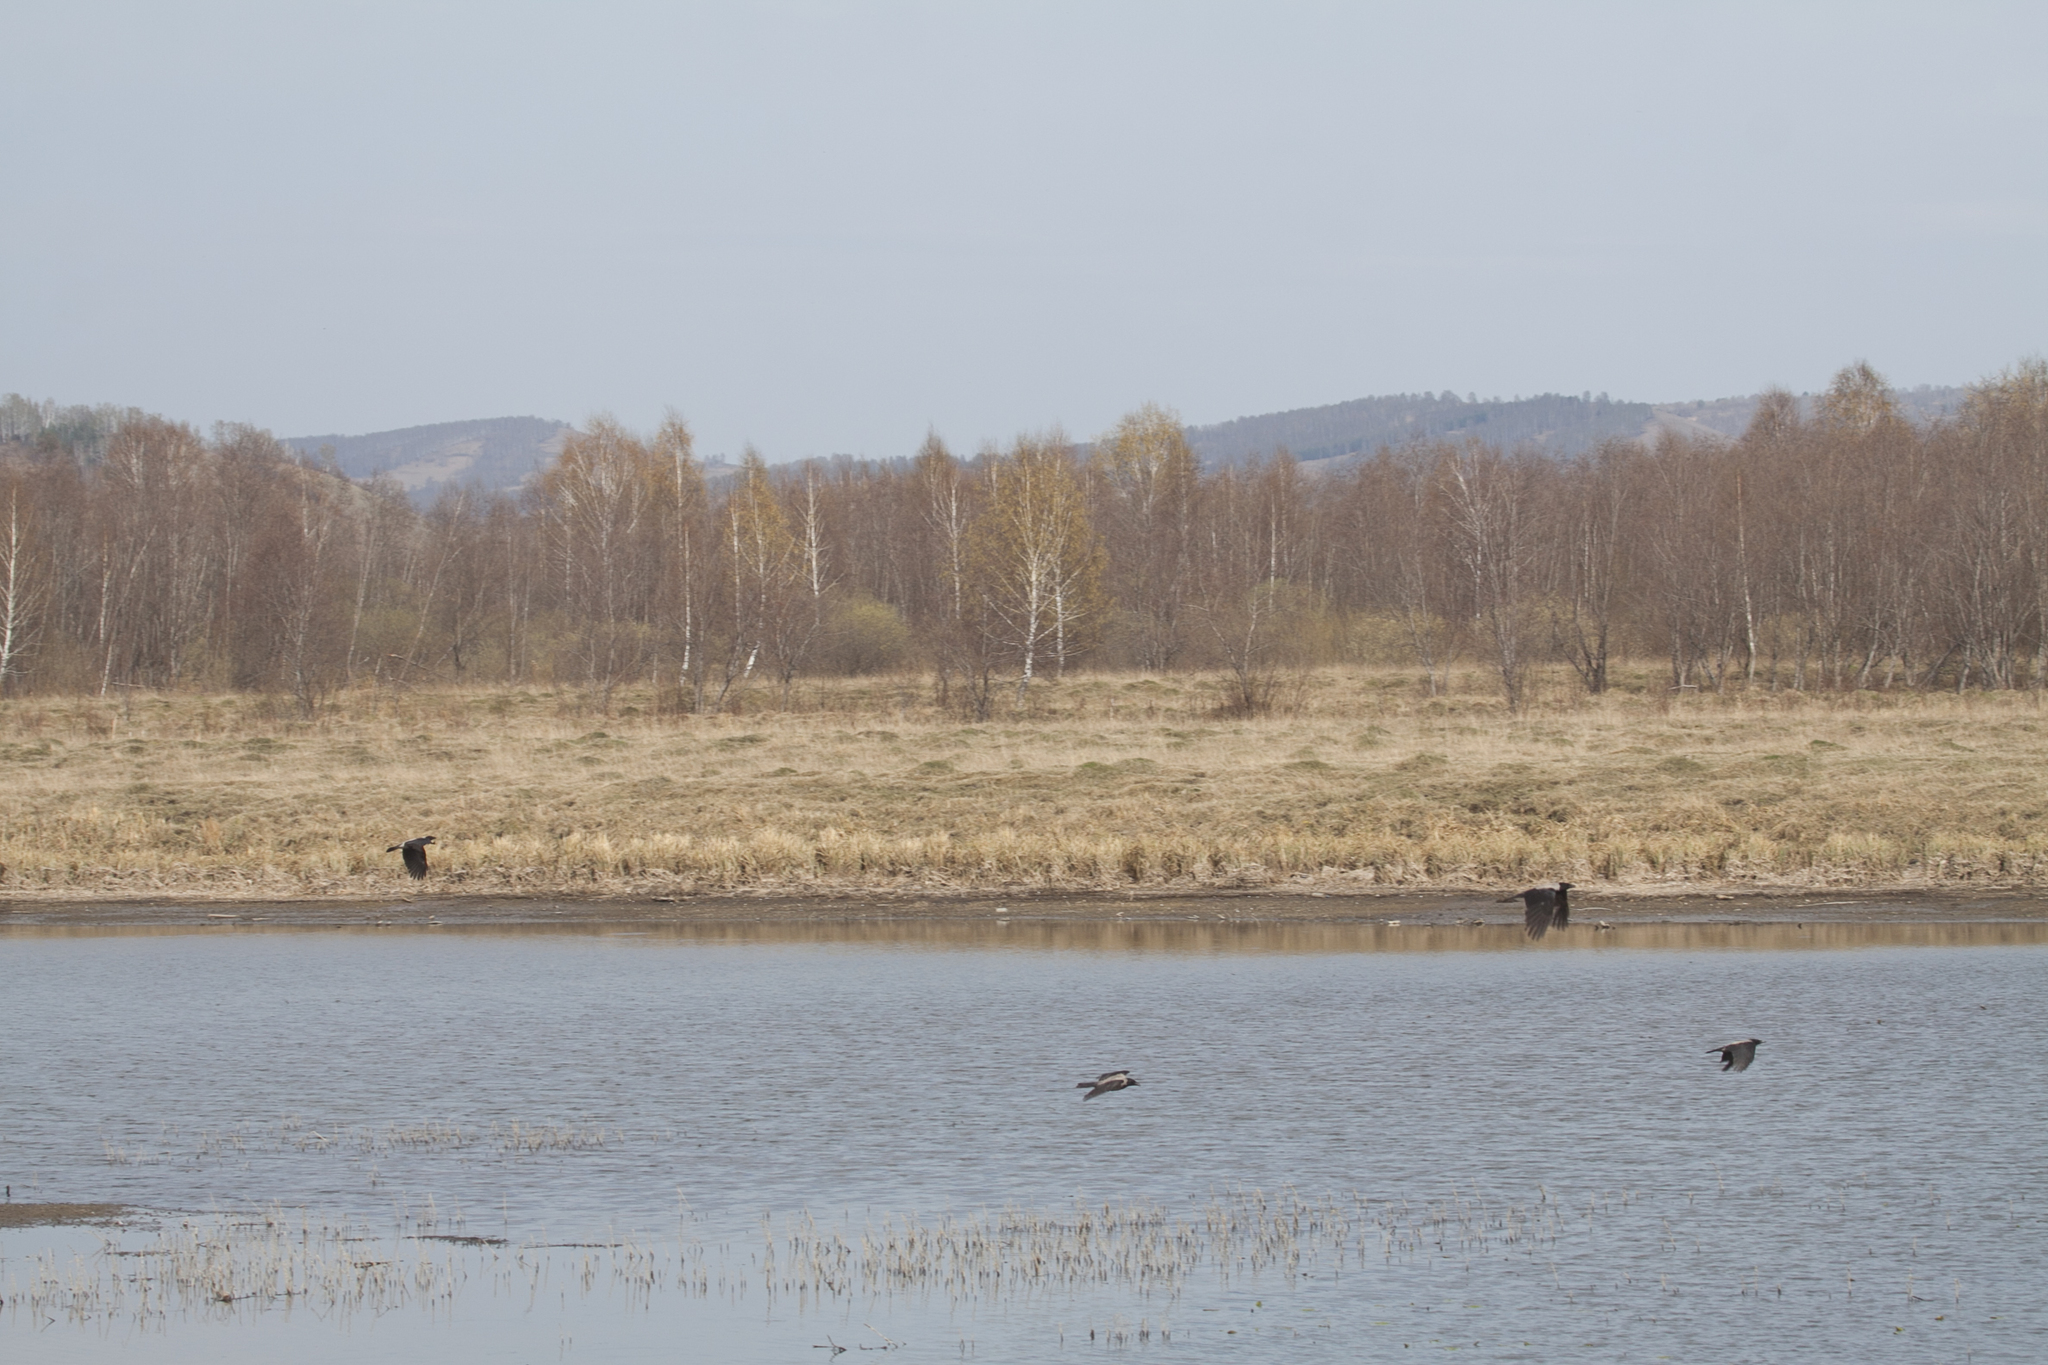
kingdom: Animalia
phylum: Chordata
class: Aves
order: Passeriformes
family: Corvidae
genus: Corvus
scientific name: Corvus cornix
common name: Hooded crow
